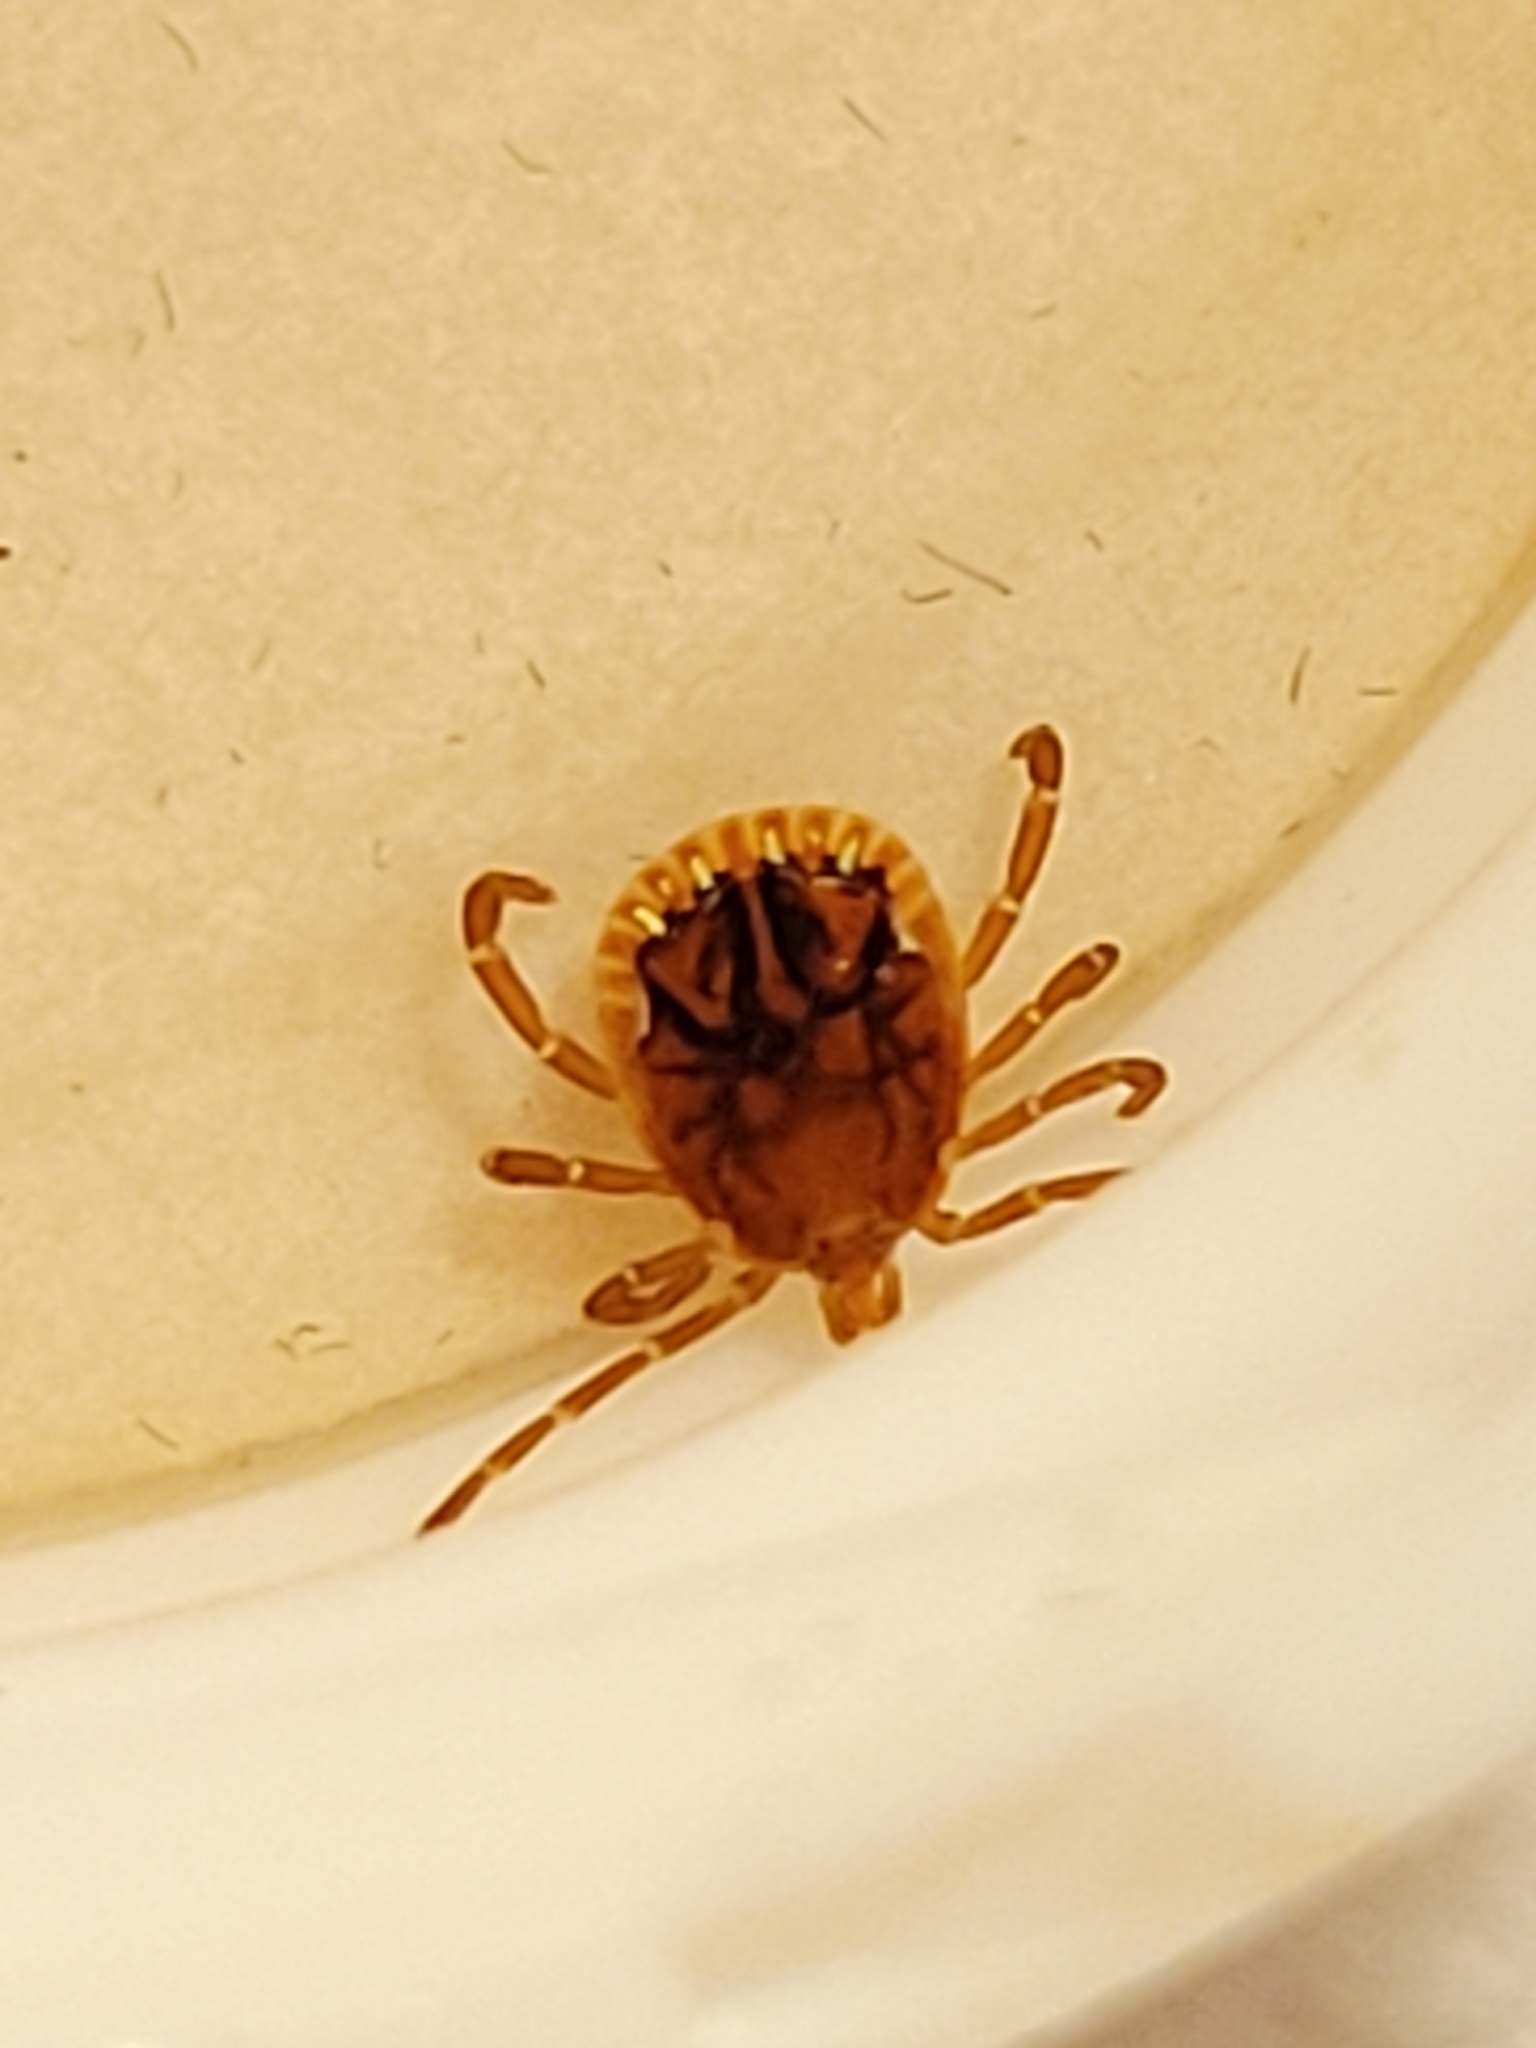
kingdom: Animalia
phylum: Arthropoda
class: Arachnida
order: Ixodida
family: Ixodidae
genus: Amblyomma
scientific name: Amblyomma americanum
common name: Lone star tick
